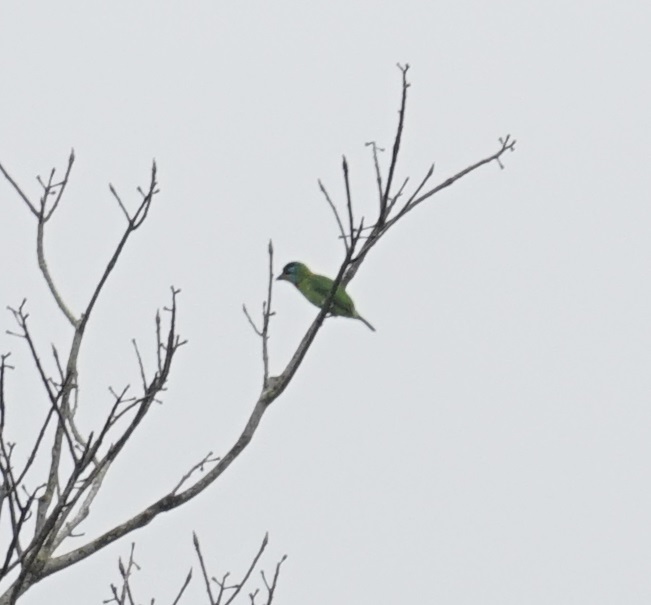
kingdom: Animalia
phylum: Chordata
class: Aves
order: Piciformes
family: Megalaimidae
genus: Psilopogon
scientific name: Psilopogon nuchalis
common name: Taiwan barbet
